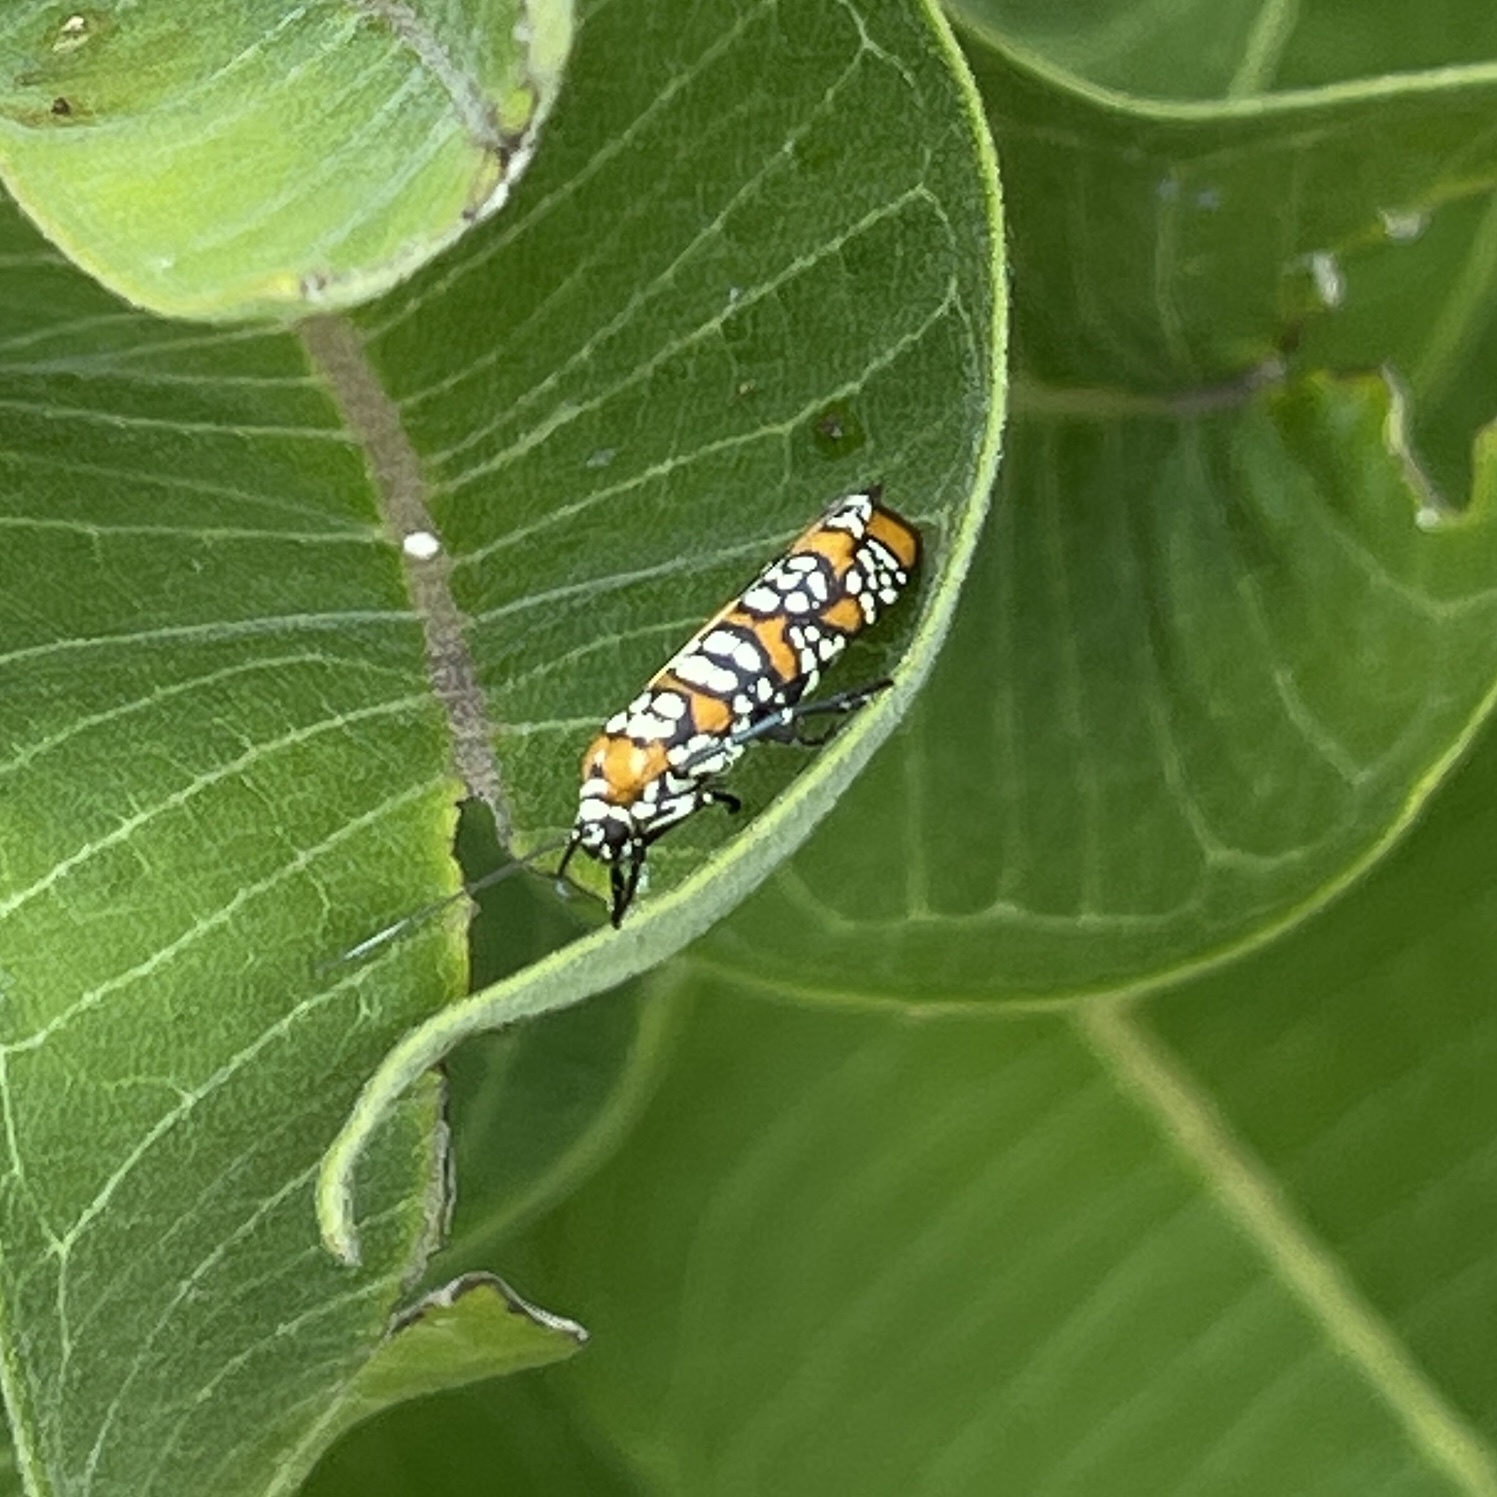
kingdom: Animalia
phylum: Arthropoda
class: Insecta
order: Lepidoptera
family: Attevidae
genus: Atteva
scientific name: Atteva punctella
